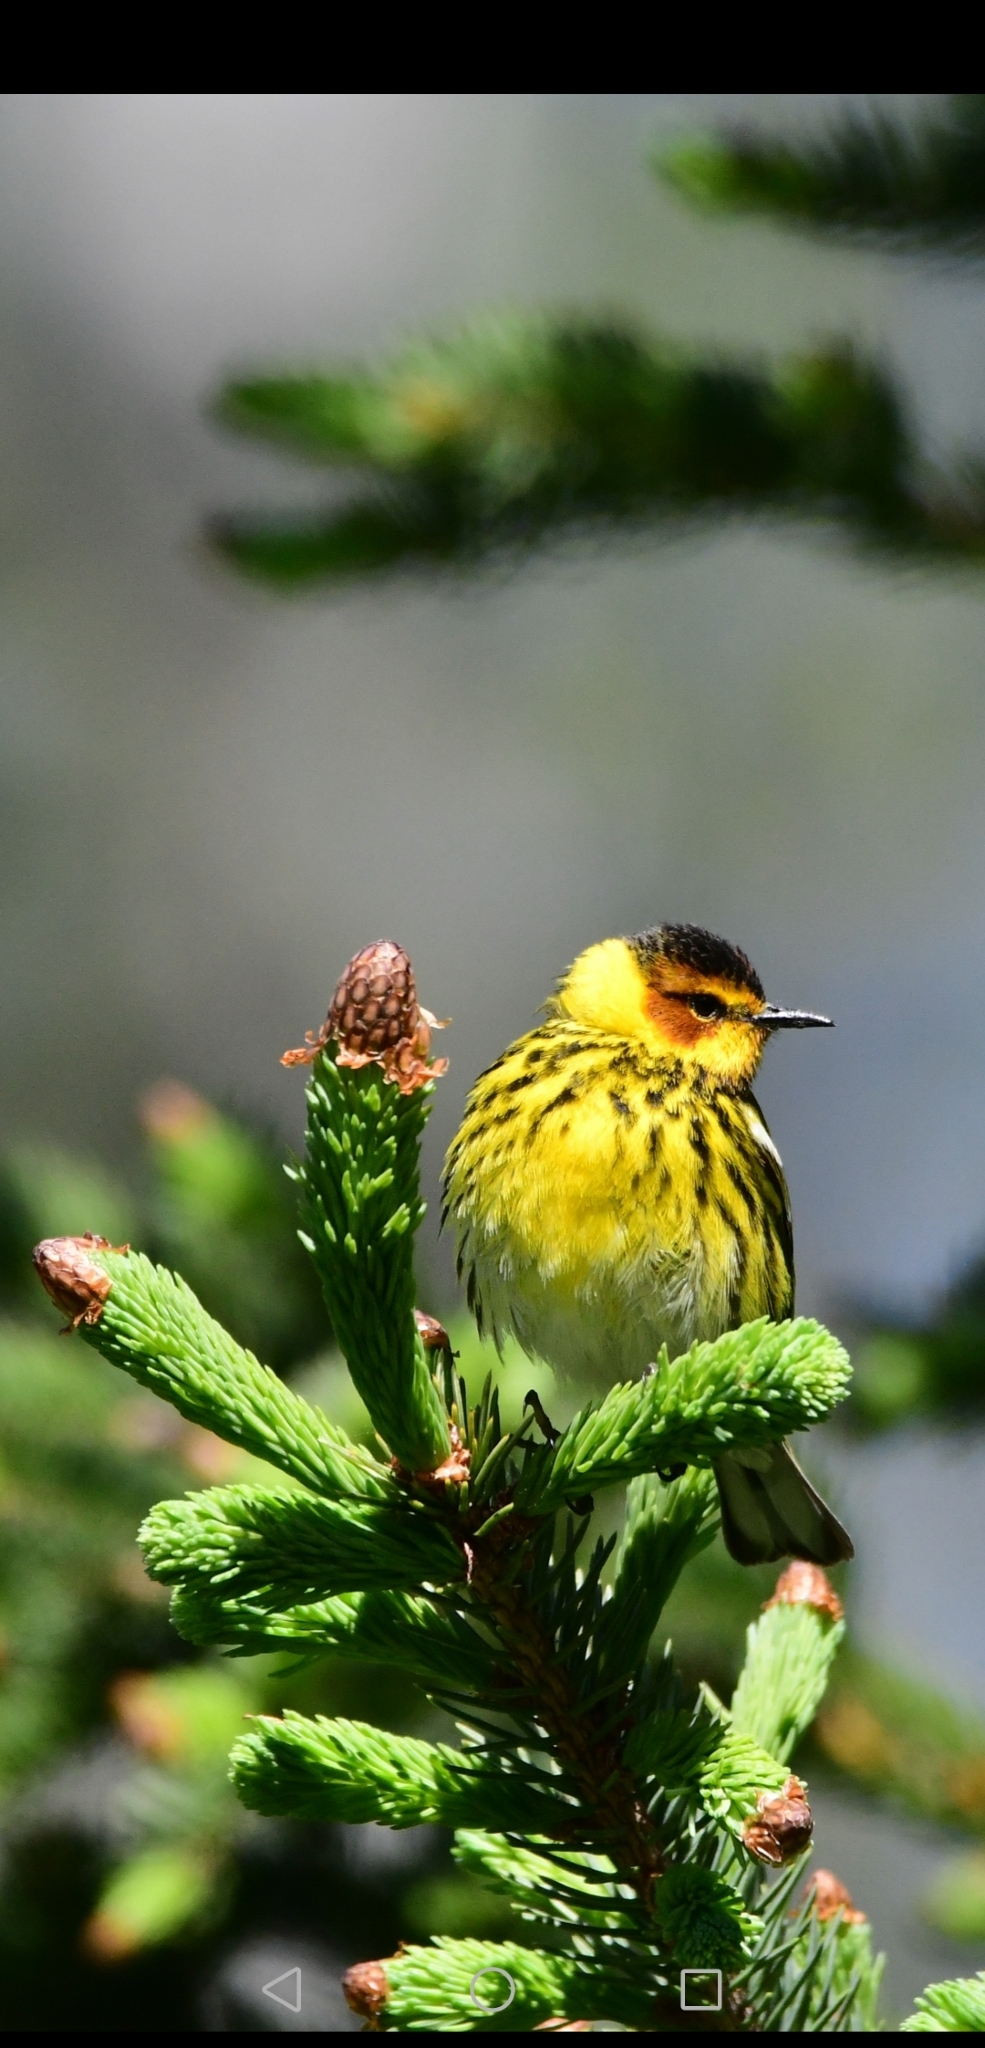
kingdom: Animalia
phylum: Chordata
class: Aves
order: Passeriformes
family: Parulidae
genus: Setophaga
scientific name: Setophaga tigrina
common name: Cape may warbler
